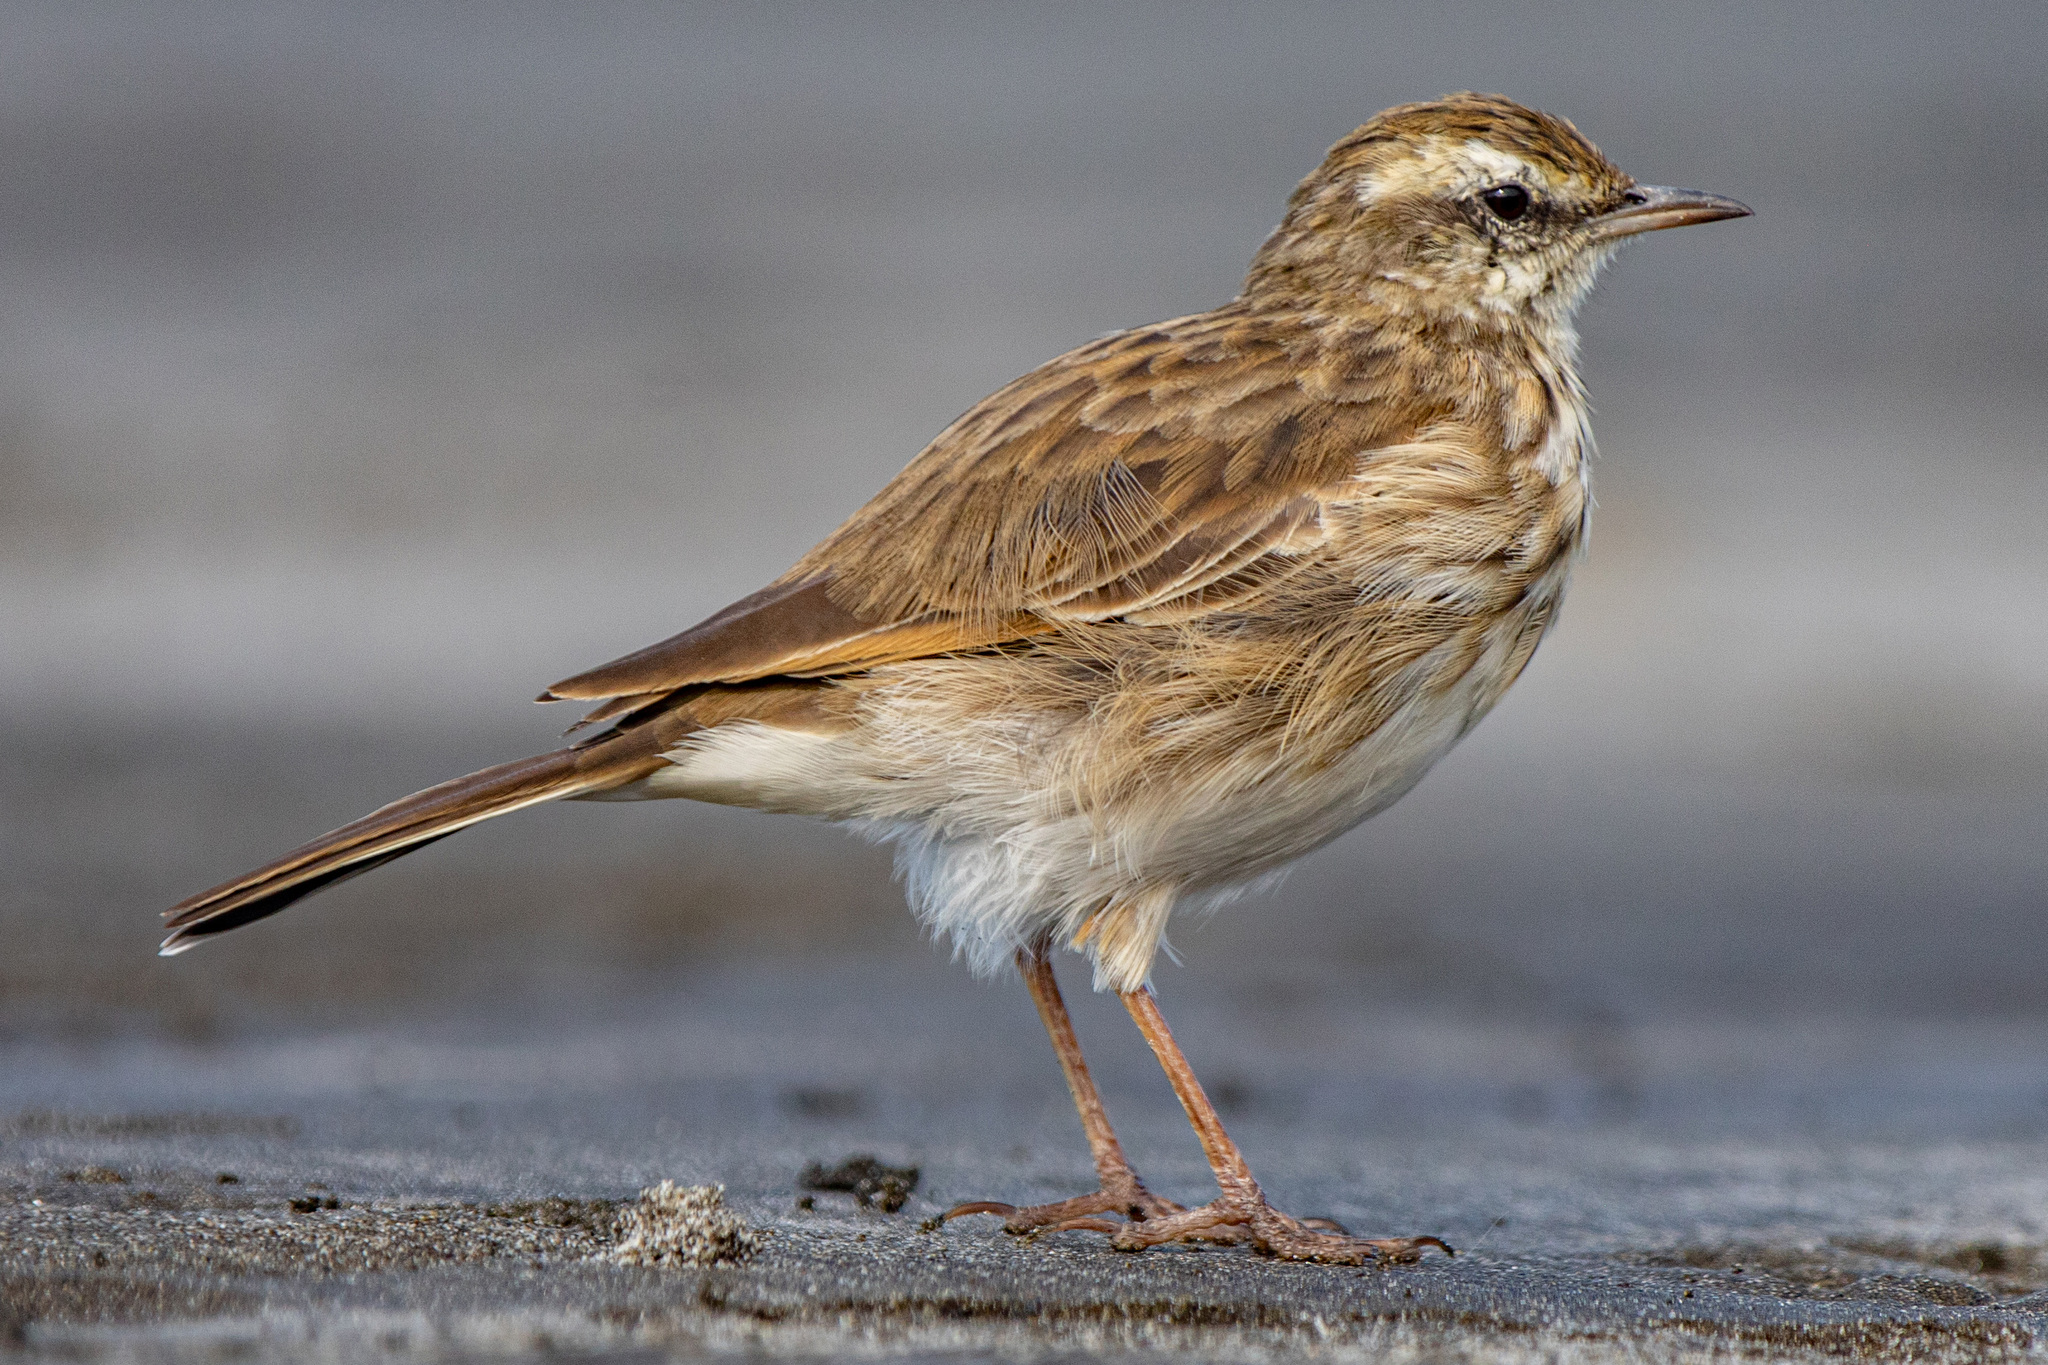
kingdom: Animalia
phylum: Chordata
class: Aves
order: Passeriformes
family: Motacillidae
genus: Anthus
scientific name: Anthus novaeseelandiae
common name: New zealand pipit
